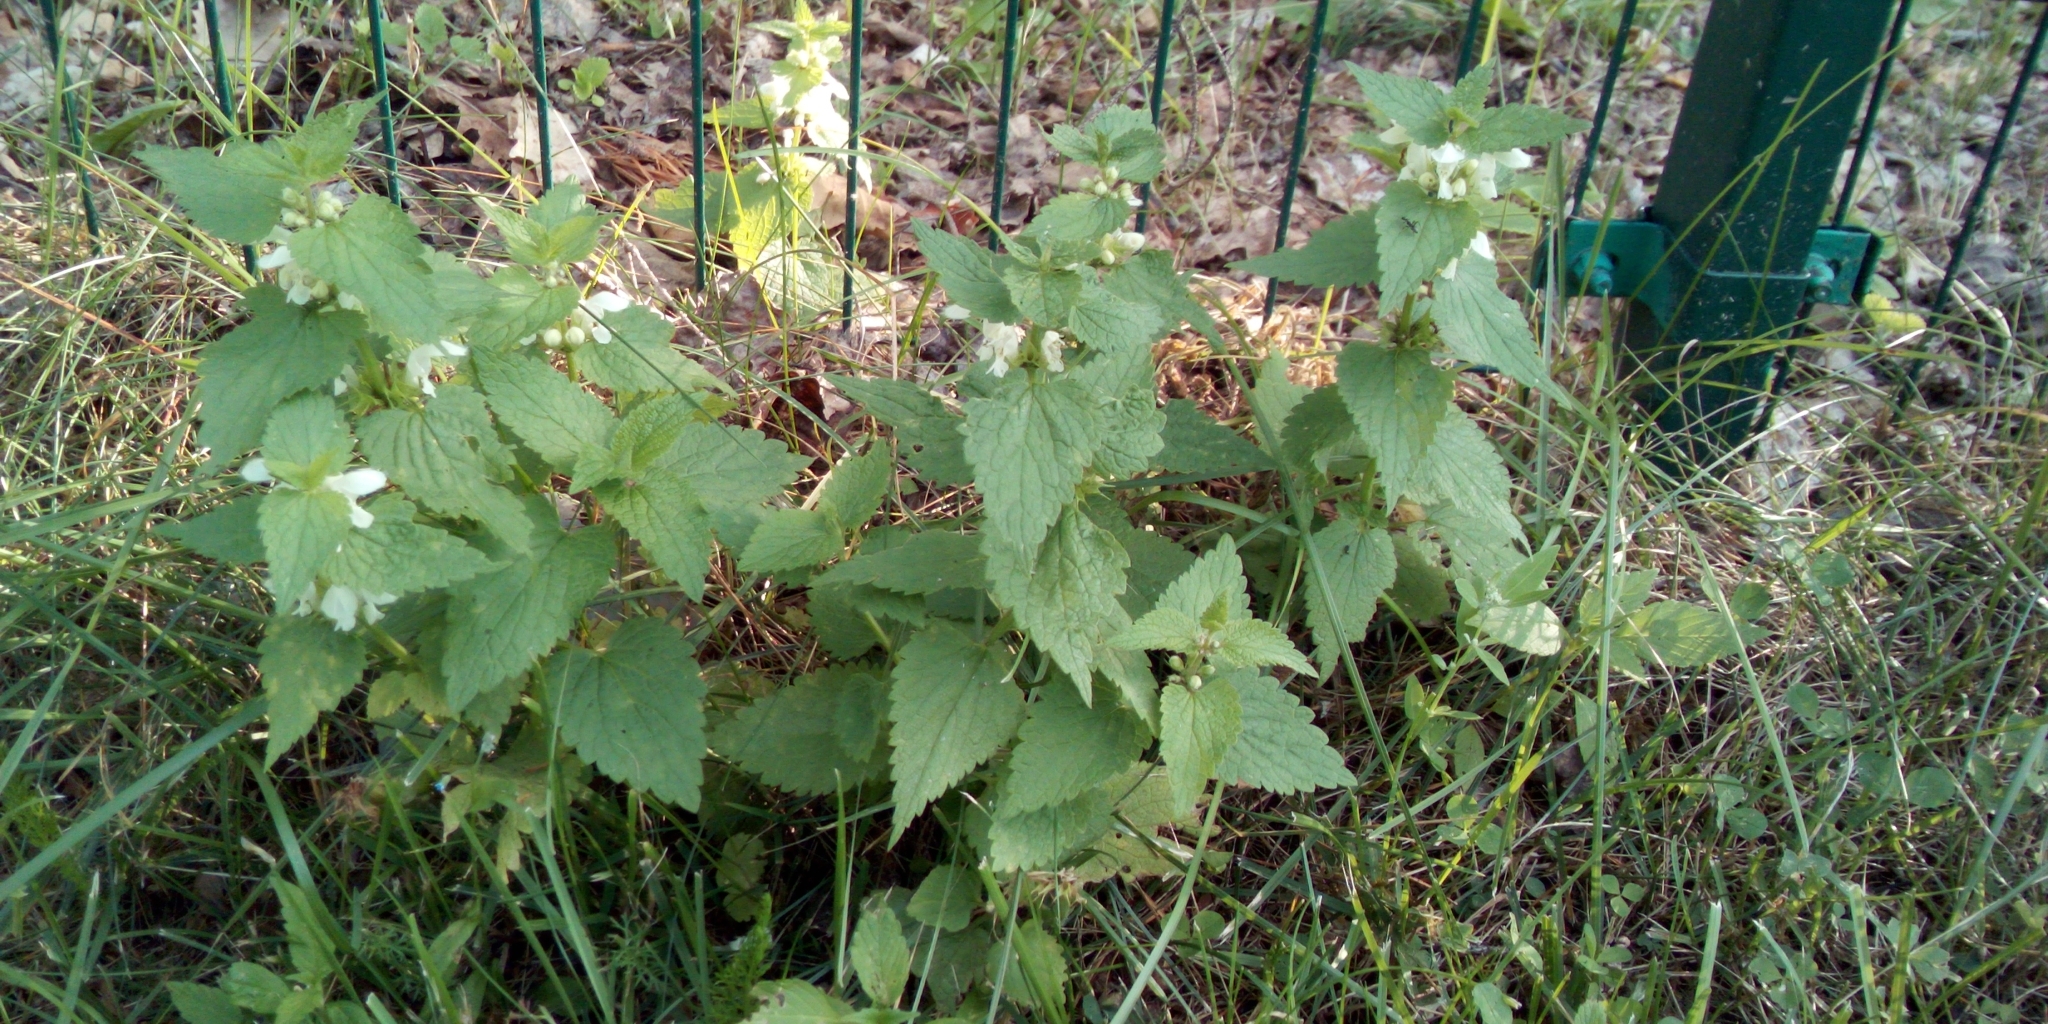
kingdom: Plantae
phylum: Tracheophyta
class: Magnoliopsida
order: Lamiales
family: Lamiaceae
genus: Lamium
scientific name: Lamium album
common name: White dead-nettle
